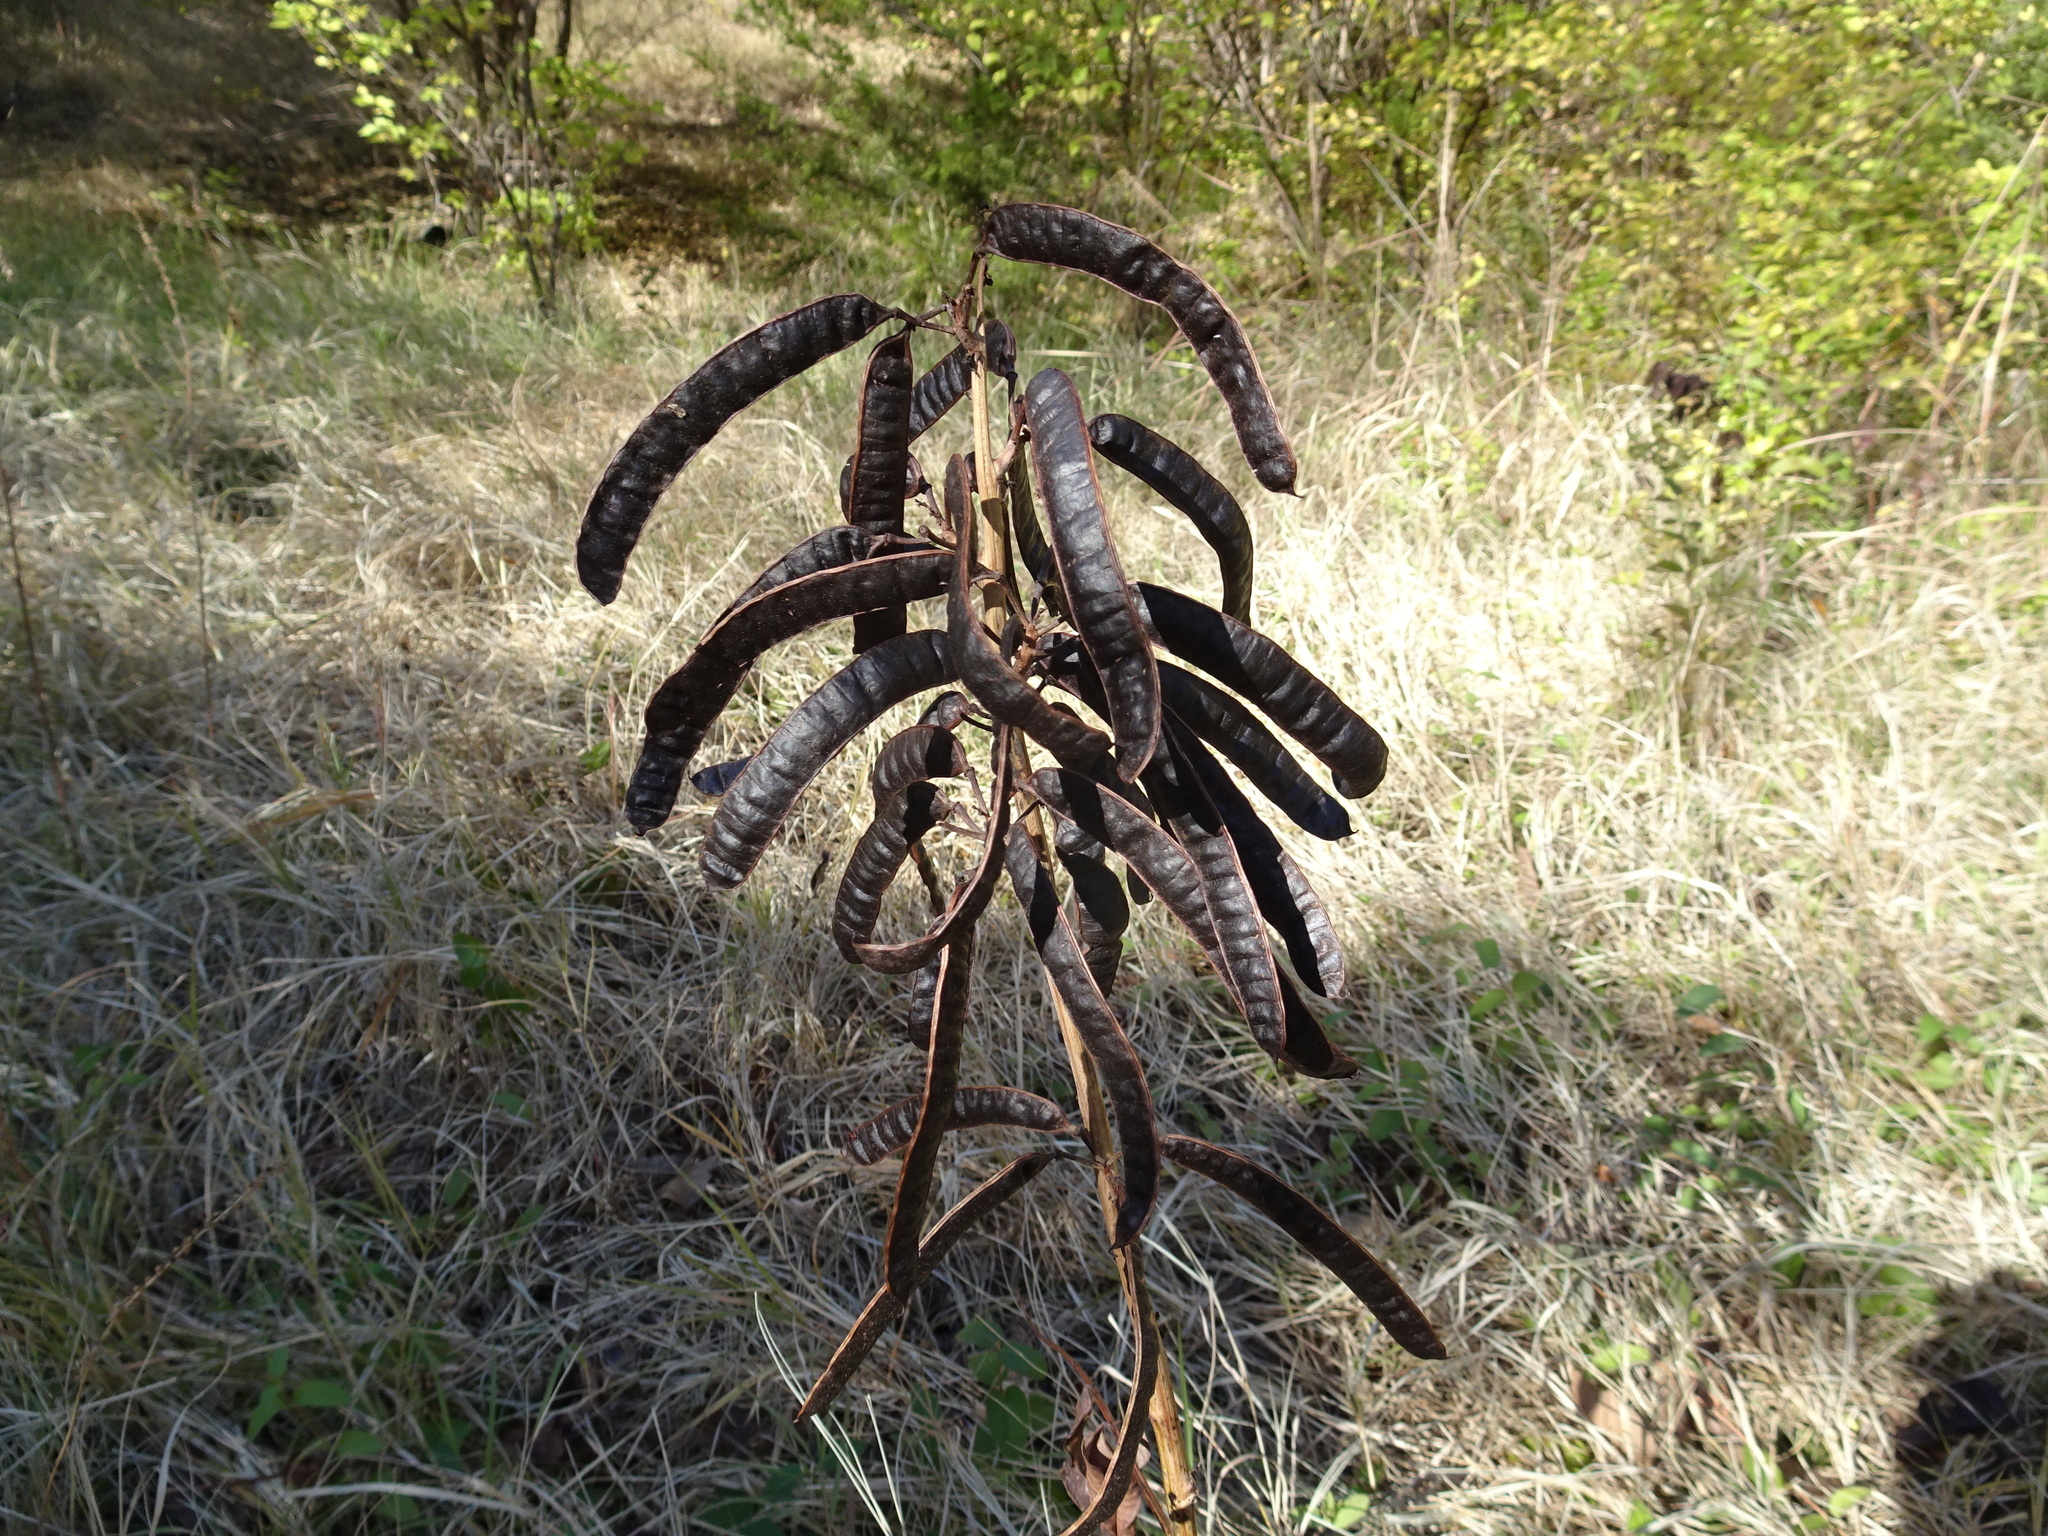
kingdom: Plantae
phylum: Tracheophyta
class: Magnoliopsida
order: Fabales
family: Fabaceae
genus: Senna
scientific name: Senna marilandica
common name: American senna
